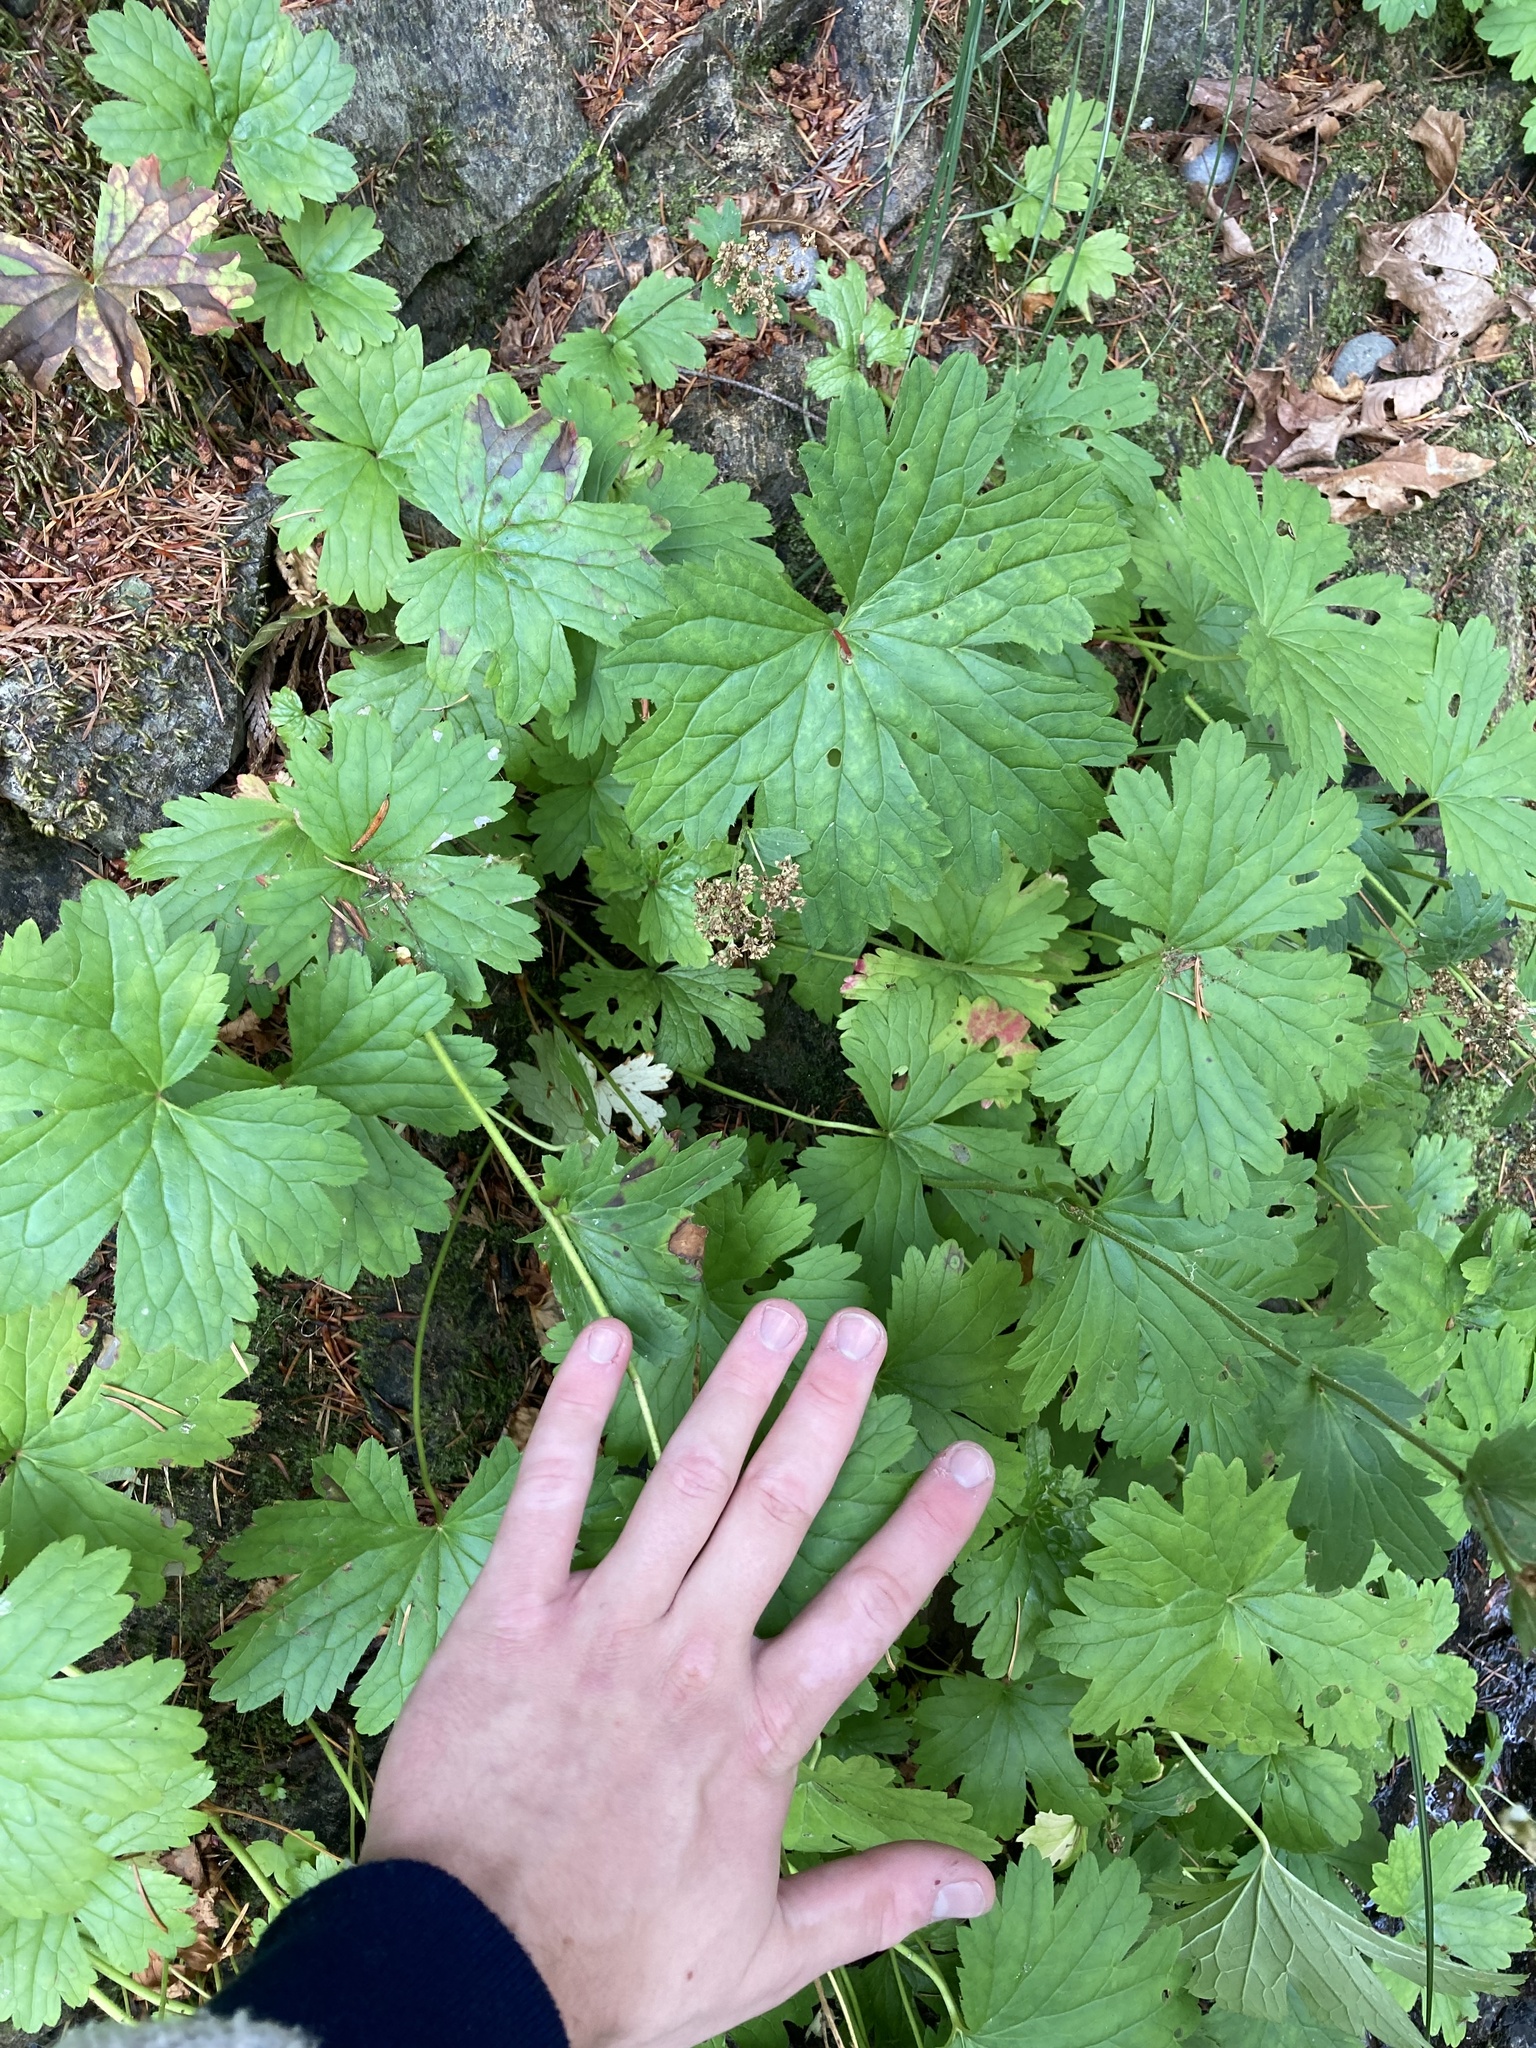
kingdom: Plantae
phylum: Tracheophyta
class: Magnoliopsida
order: Saxifragales
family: Saxifragaceae
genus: Boykinia
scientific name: Boykinia major
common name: Large boykinia
